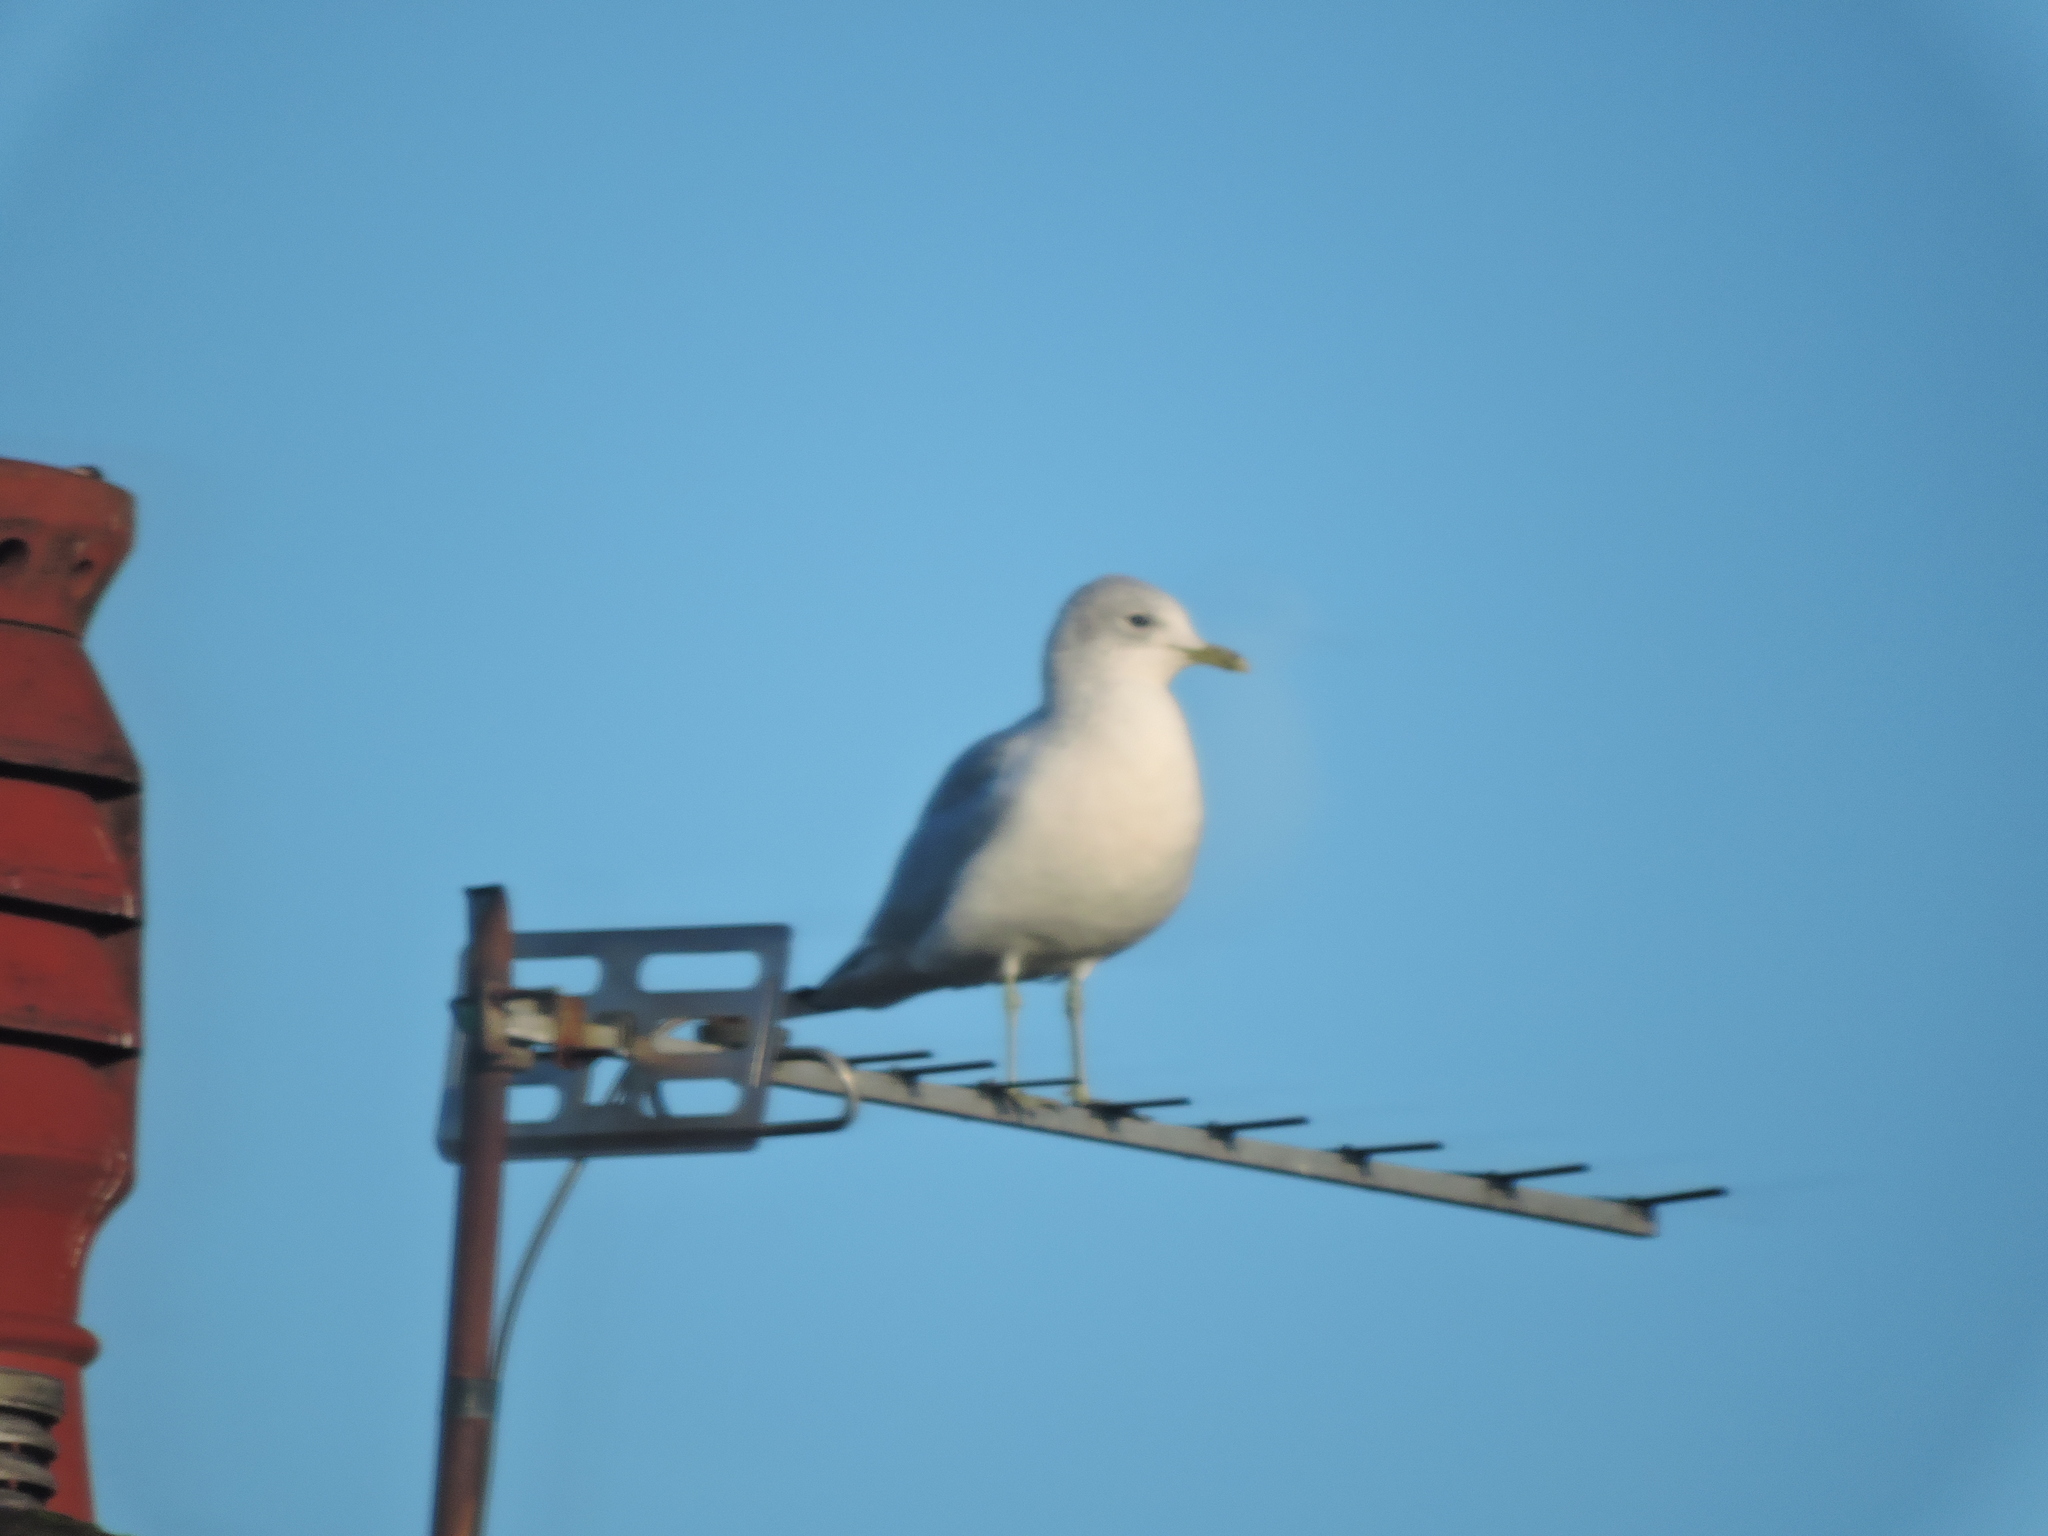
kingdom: Animalia
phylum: Chordata
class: Aves
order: Charadriiformes
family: Laridae
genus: Larus
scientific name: Larus canus
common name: Mew gull
